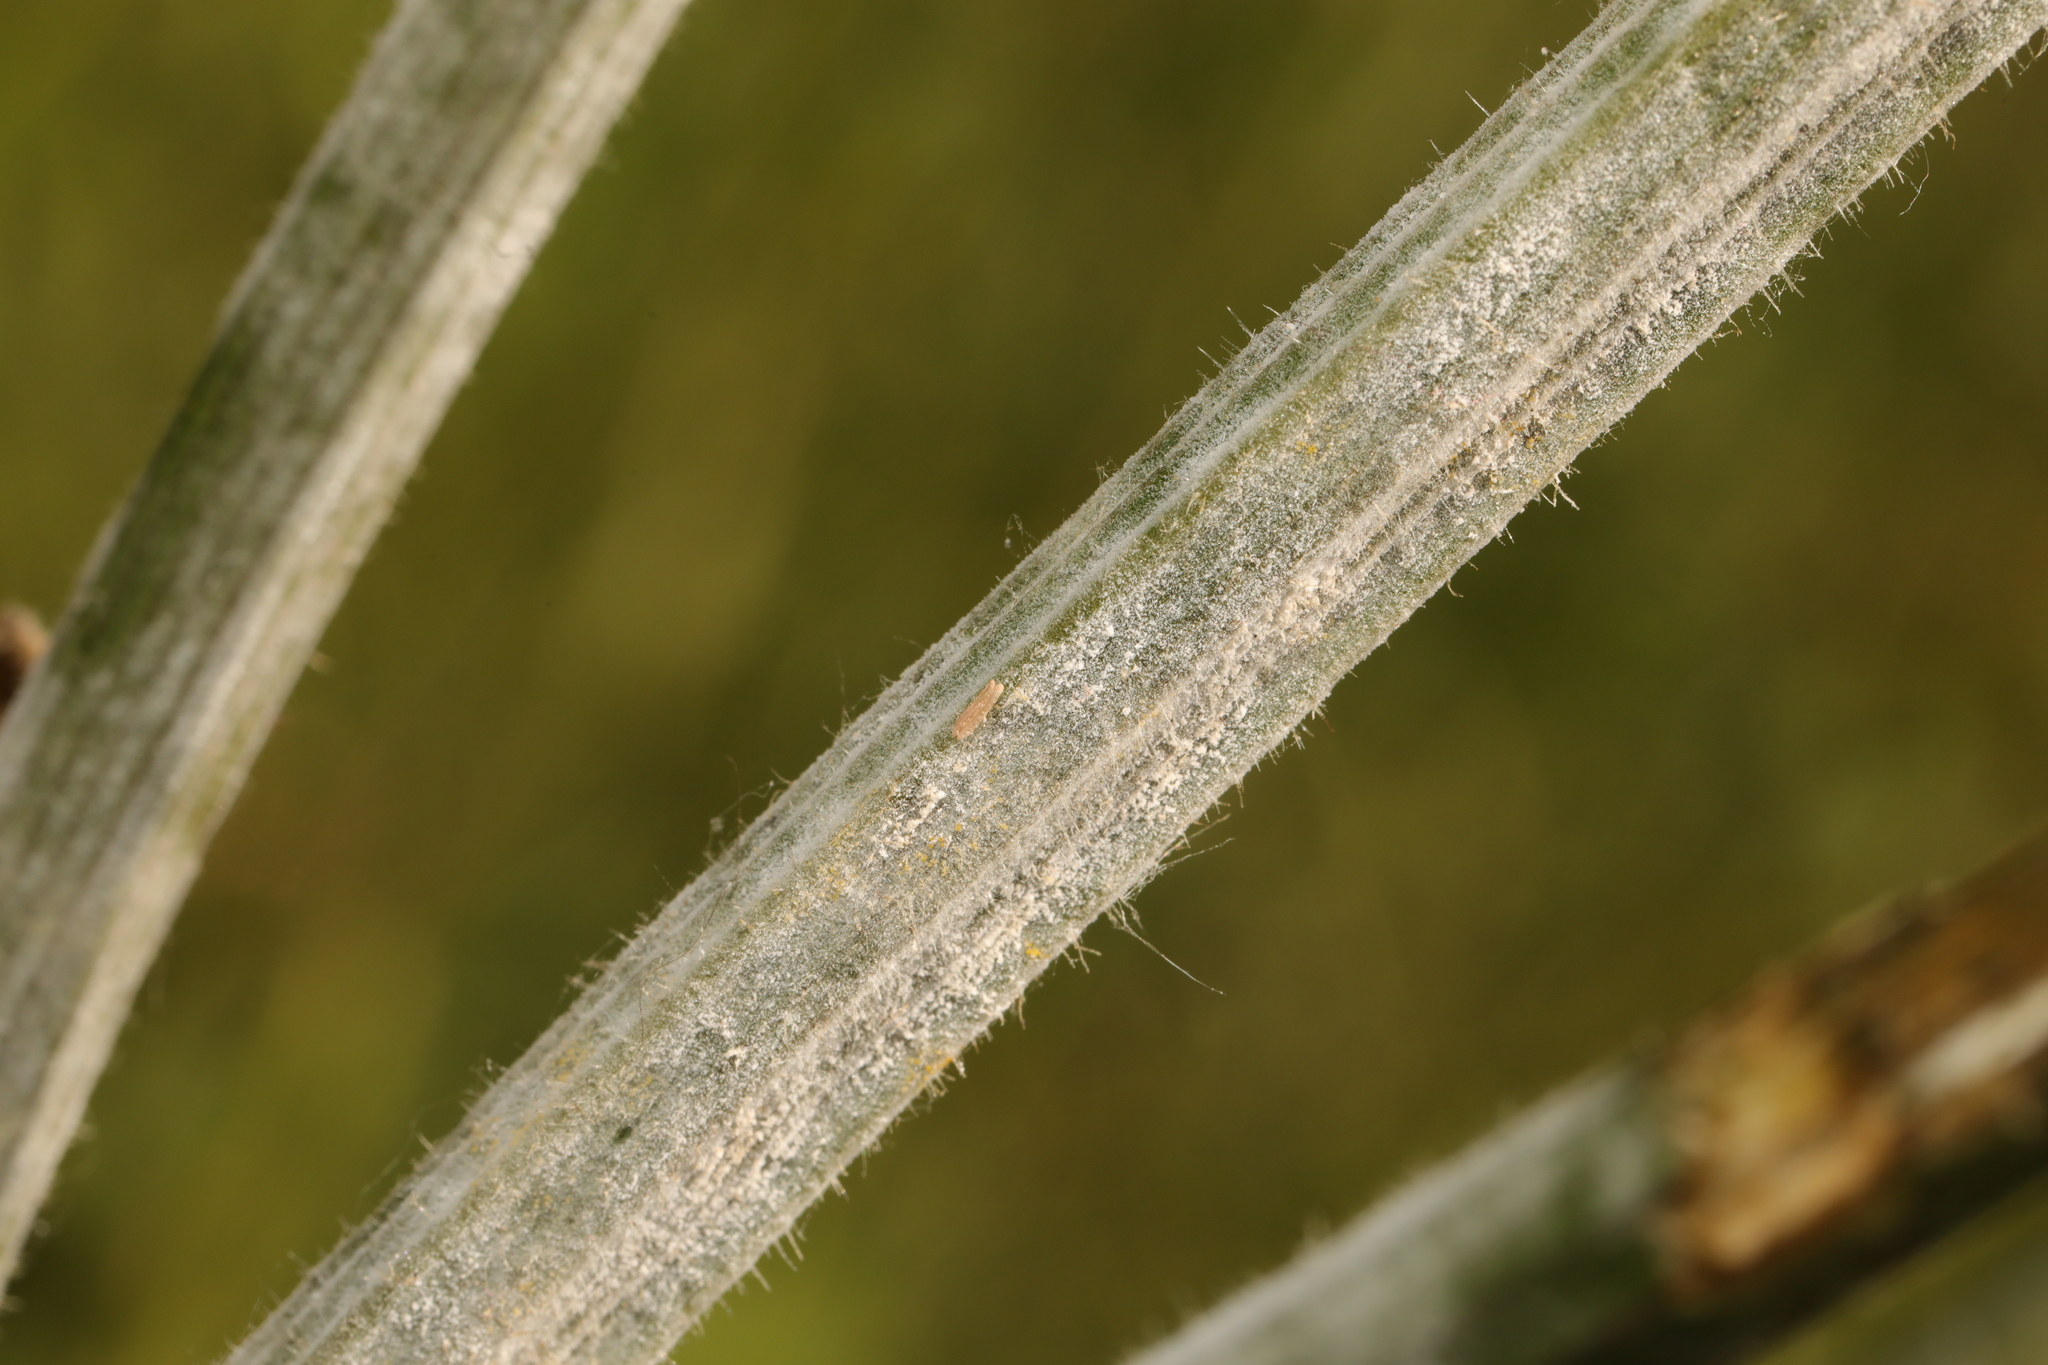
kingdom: Plantae
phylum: Tracheophyta
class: Magnoliopsida
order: Apiales
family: Apiaceae
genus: Heracleum
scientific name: Heracleum sphondylium
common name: Hogweed
